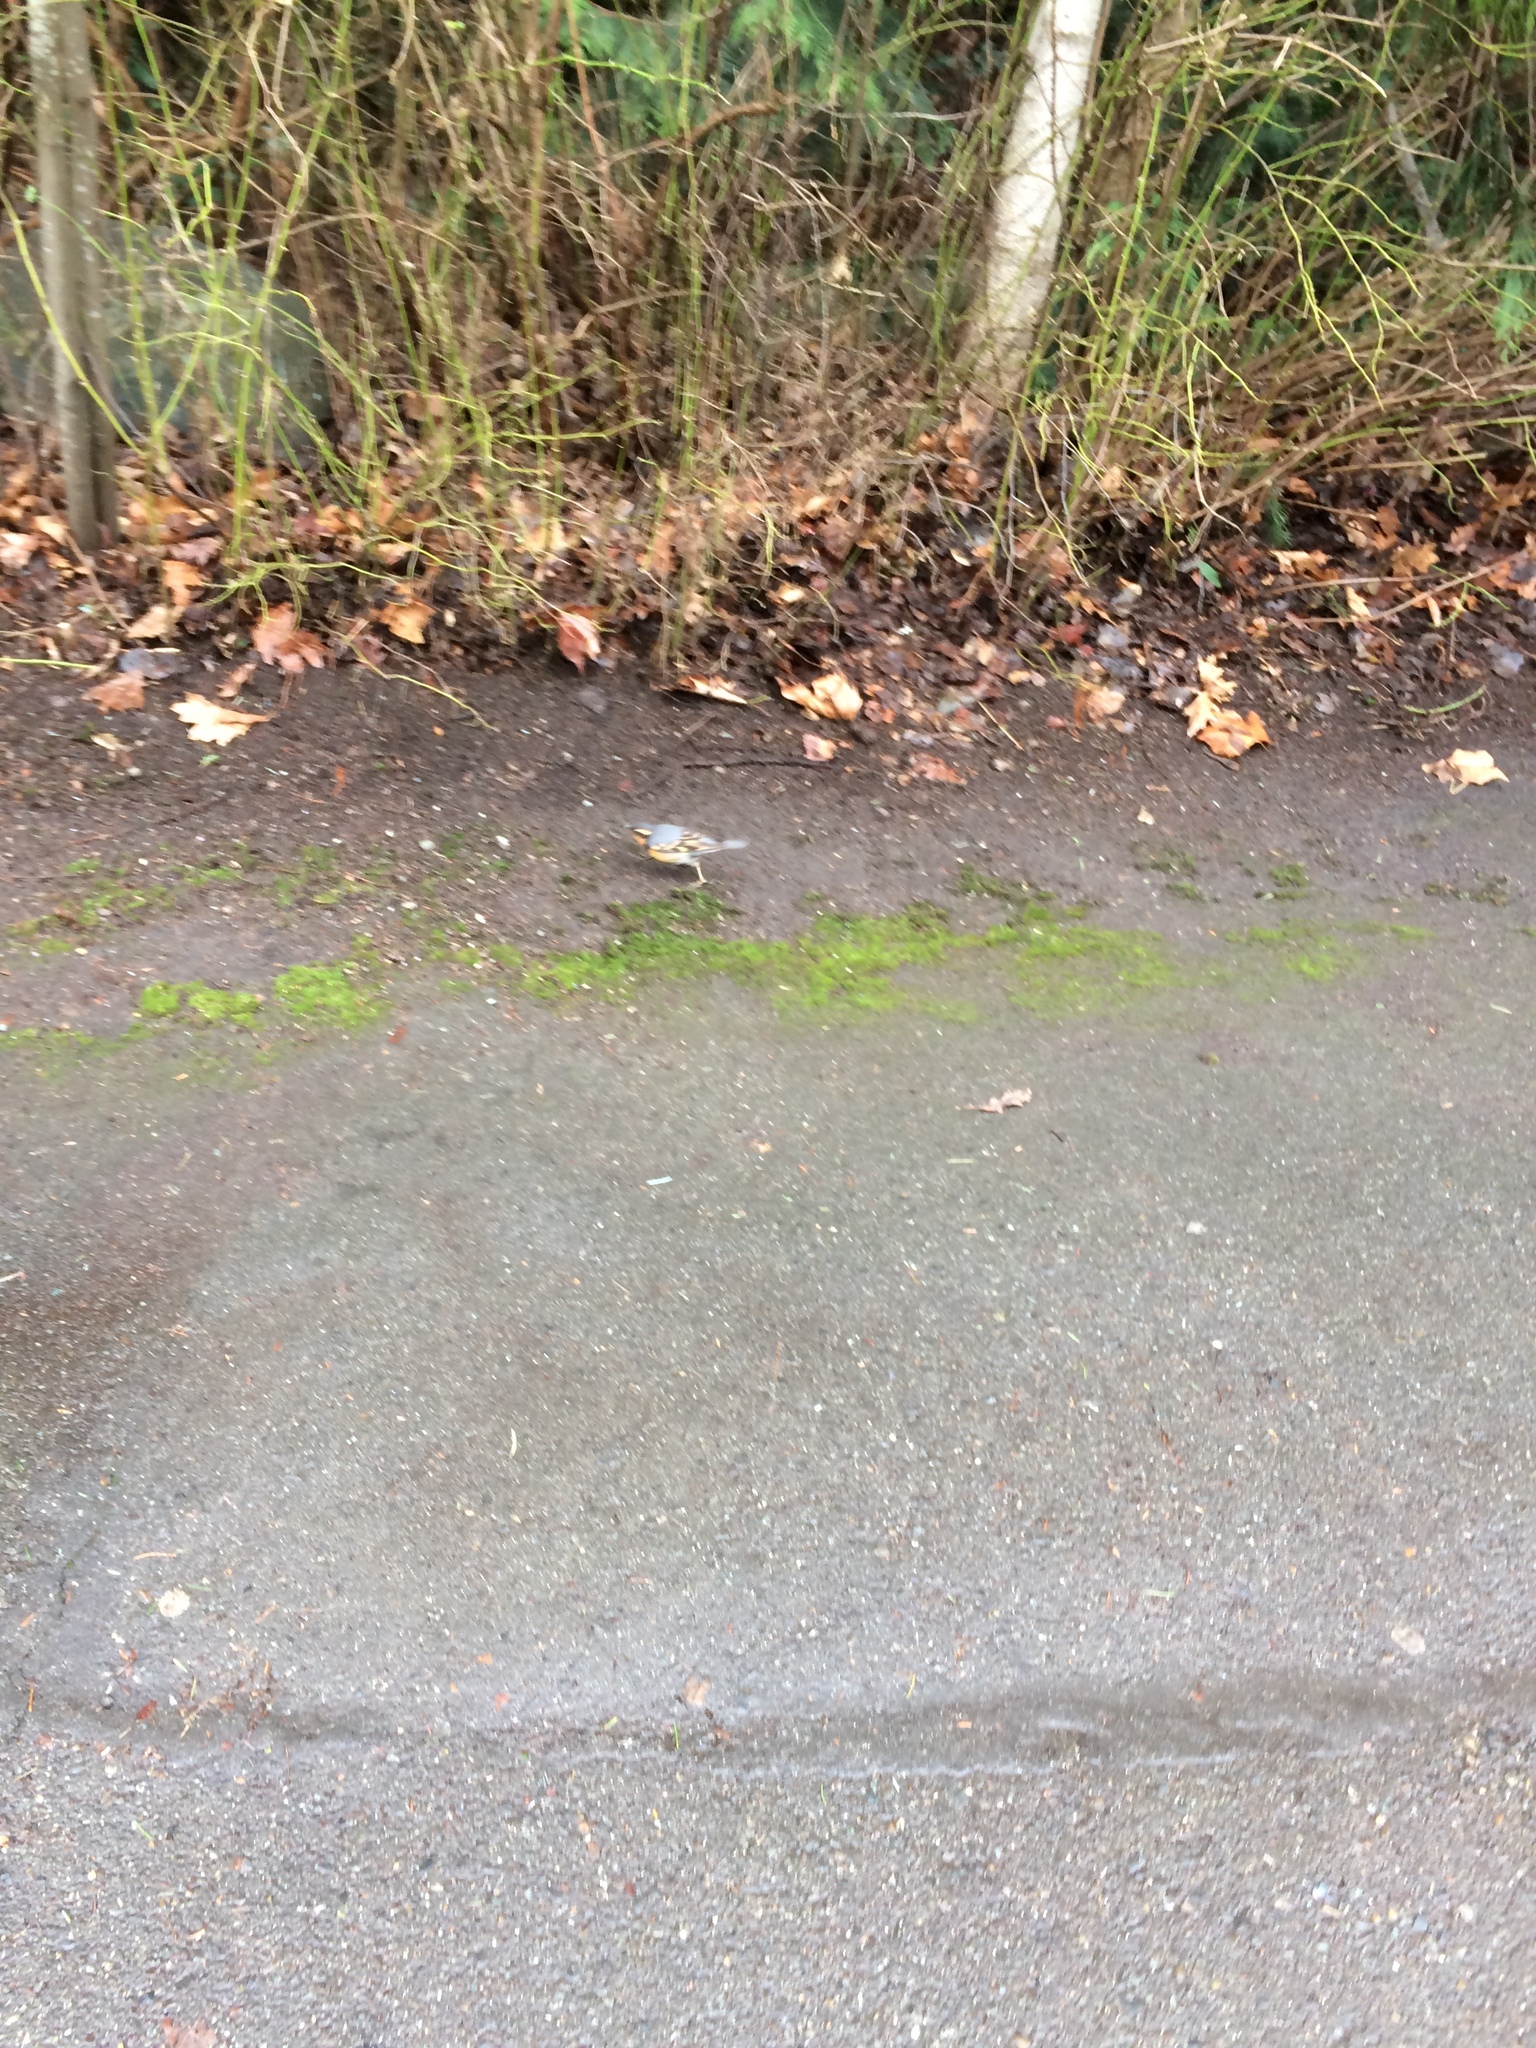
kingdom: Animalia
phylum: Chordata
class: Aves
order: Passeriformes
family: Turdidae
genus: Ixoreus
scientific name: Ixoreus naevius
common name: Varied thrush
